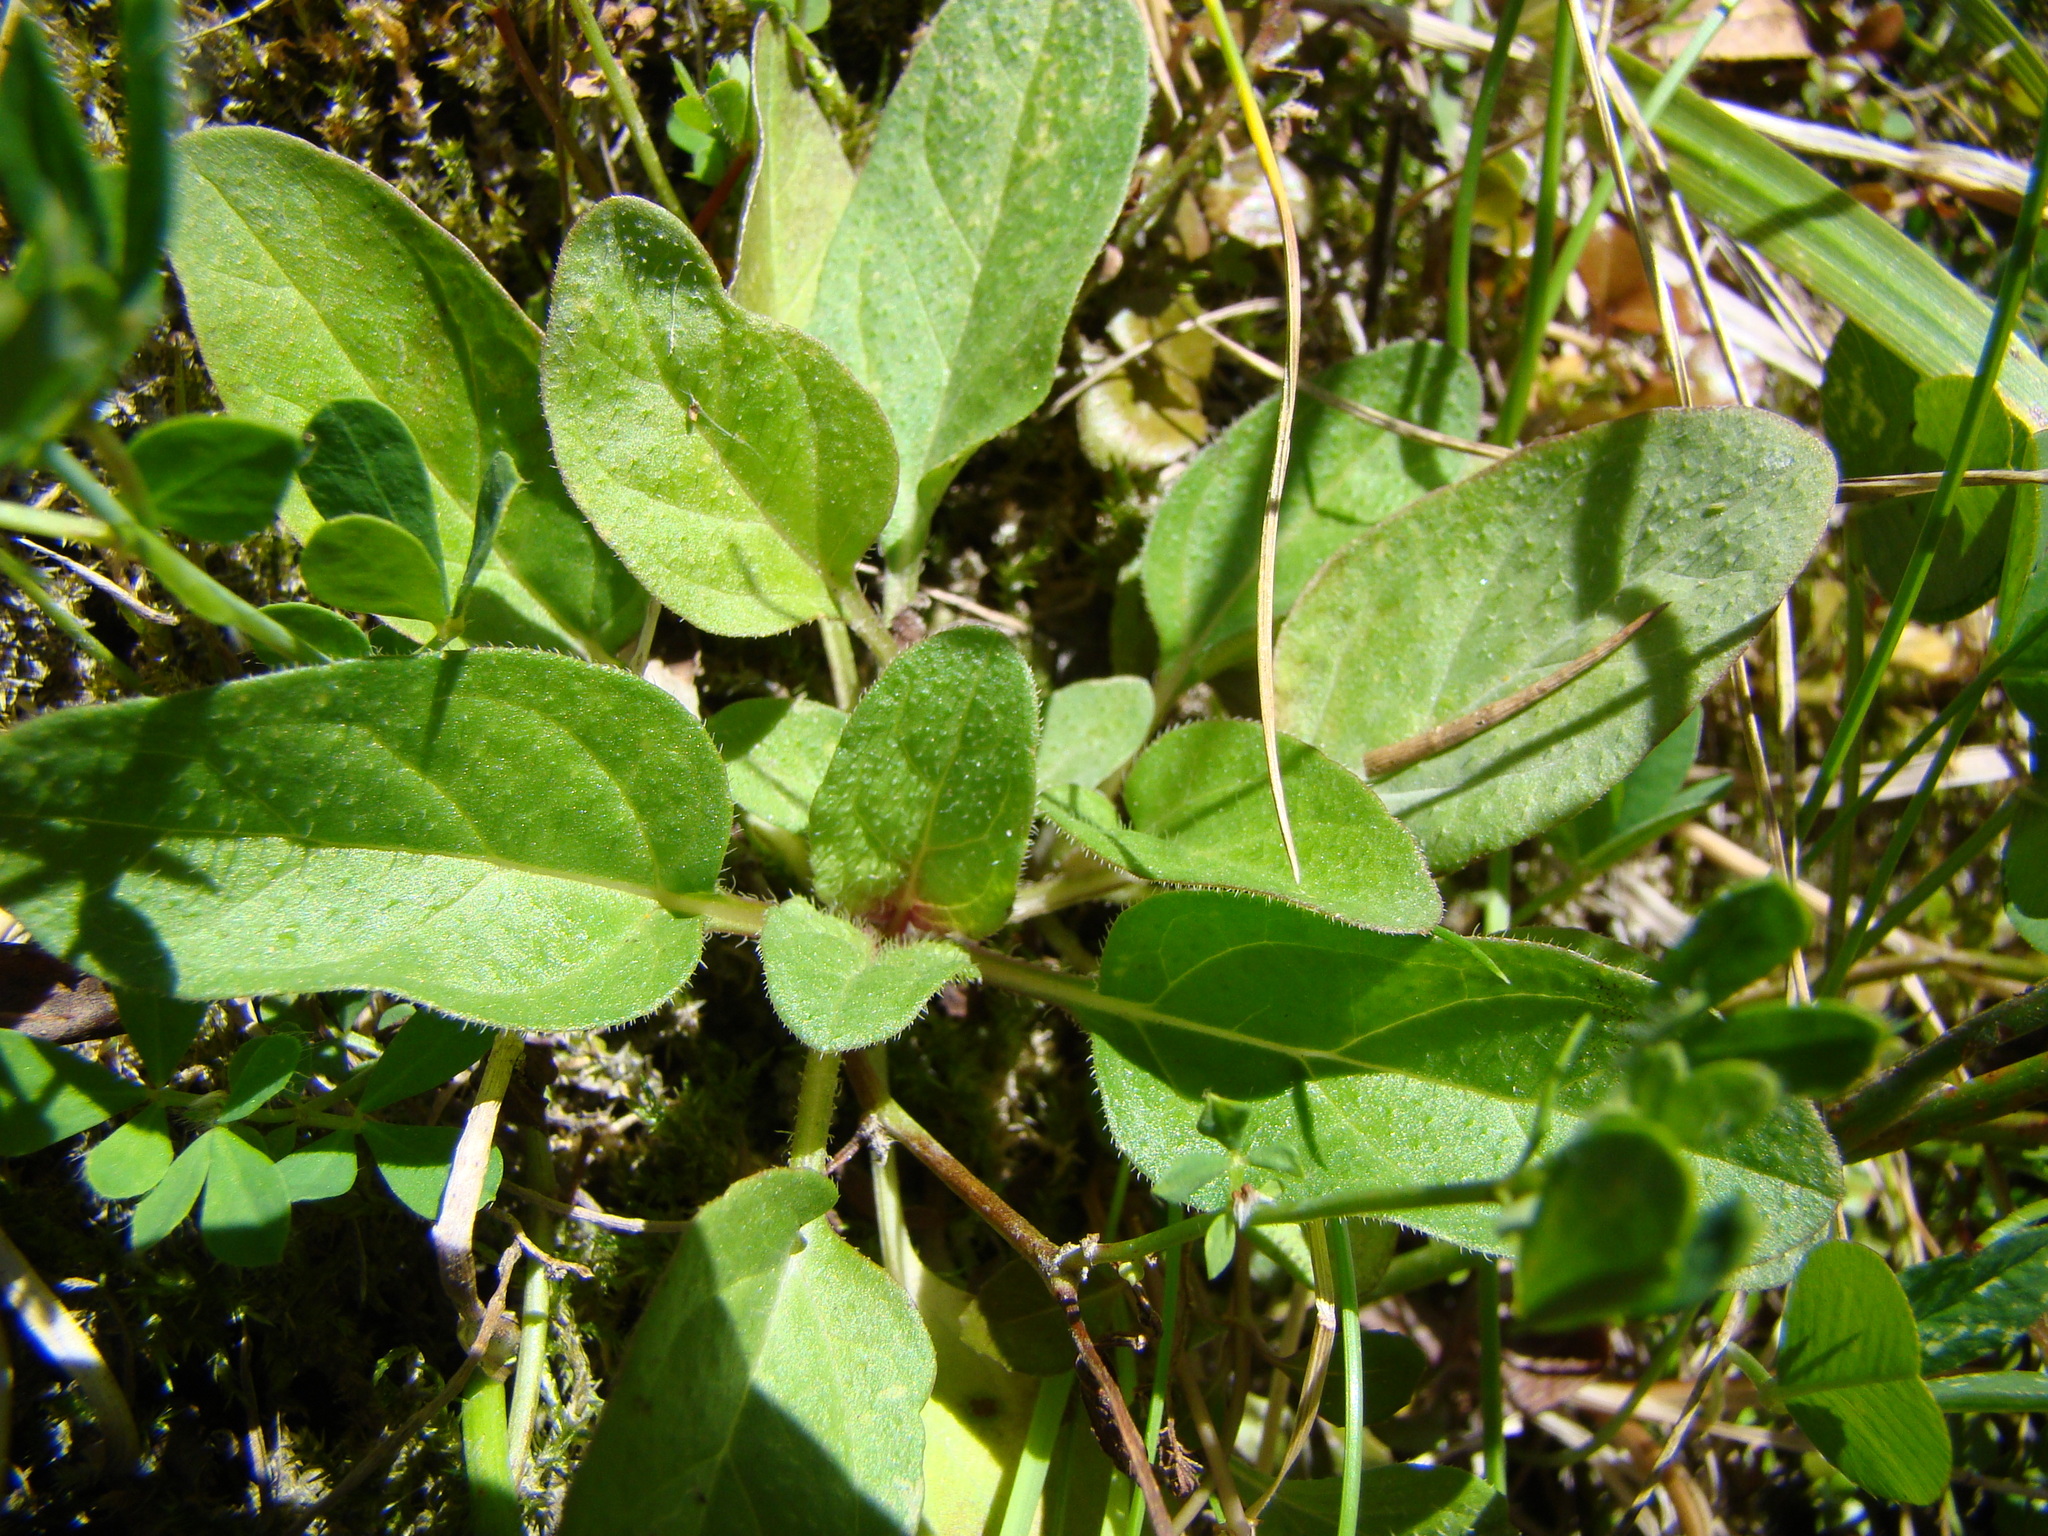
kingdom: Plantae
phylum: Tracheophyta
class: Magnoliopsida
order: Lamiales
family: Lamiaceae
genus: Prunella
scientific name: Prunella vulgaris
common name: Heal-all
